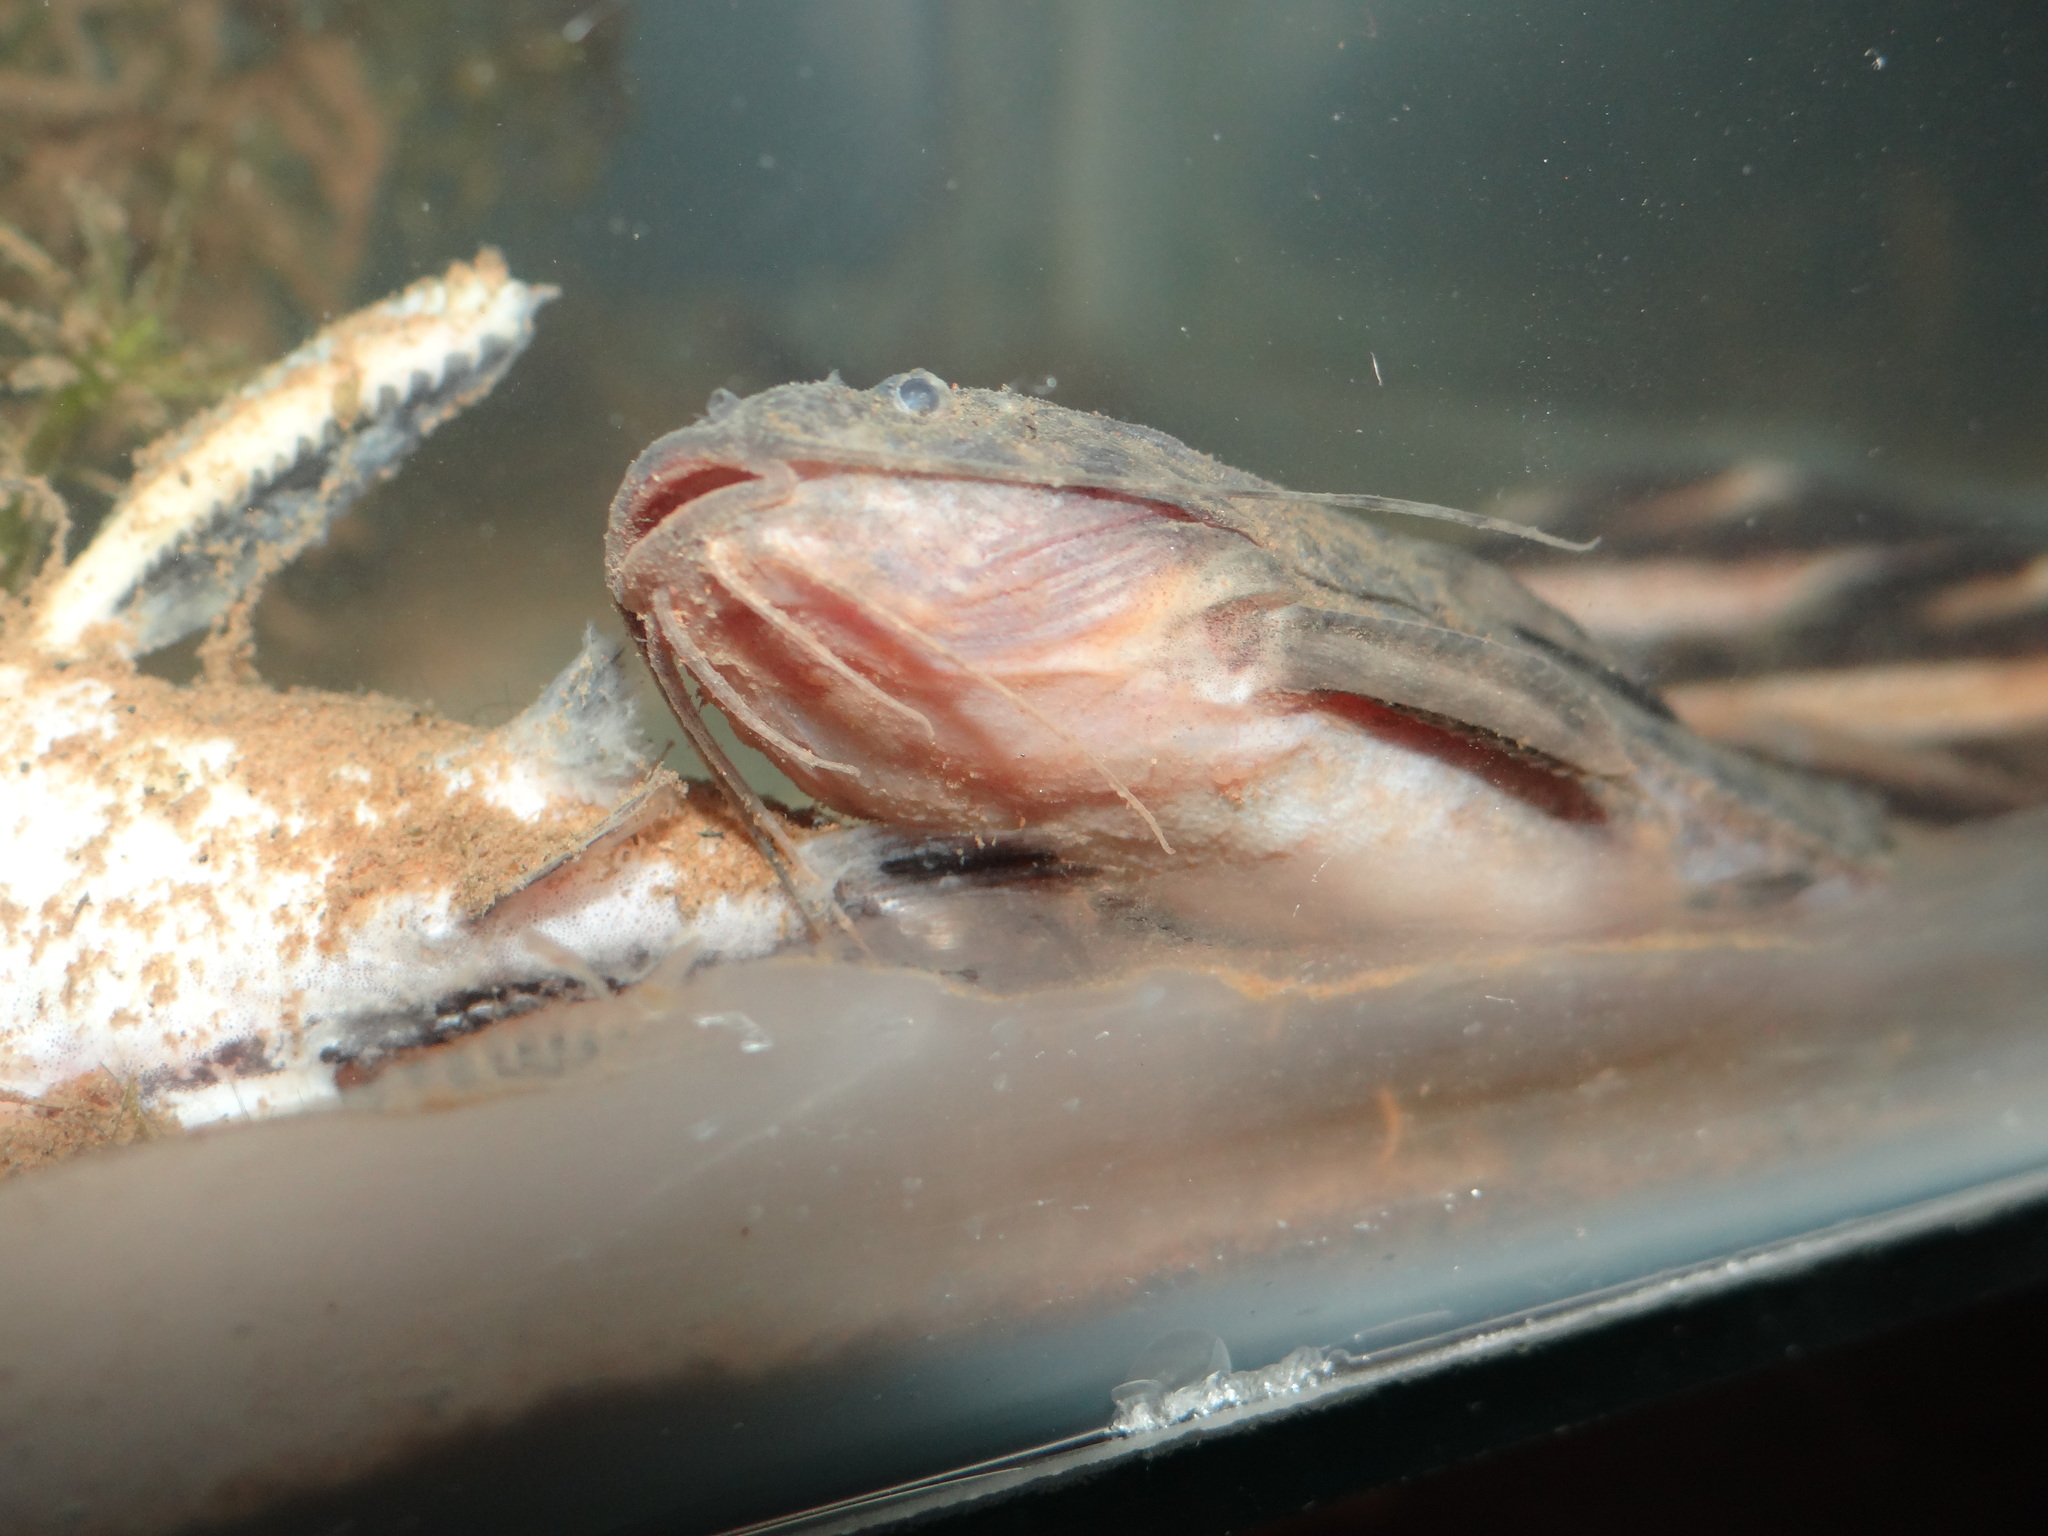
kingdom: Animalia
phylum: Chordata
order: Siluriformes
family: Doradidae
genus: Pterodoras
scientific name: Pterodoras granulosus
